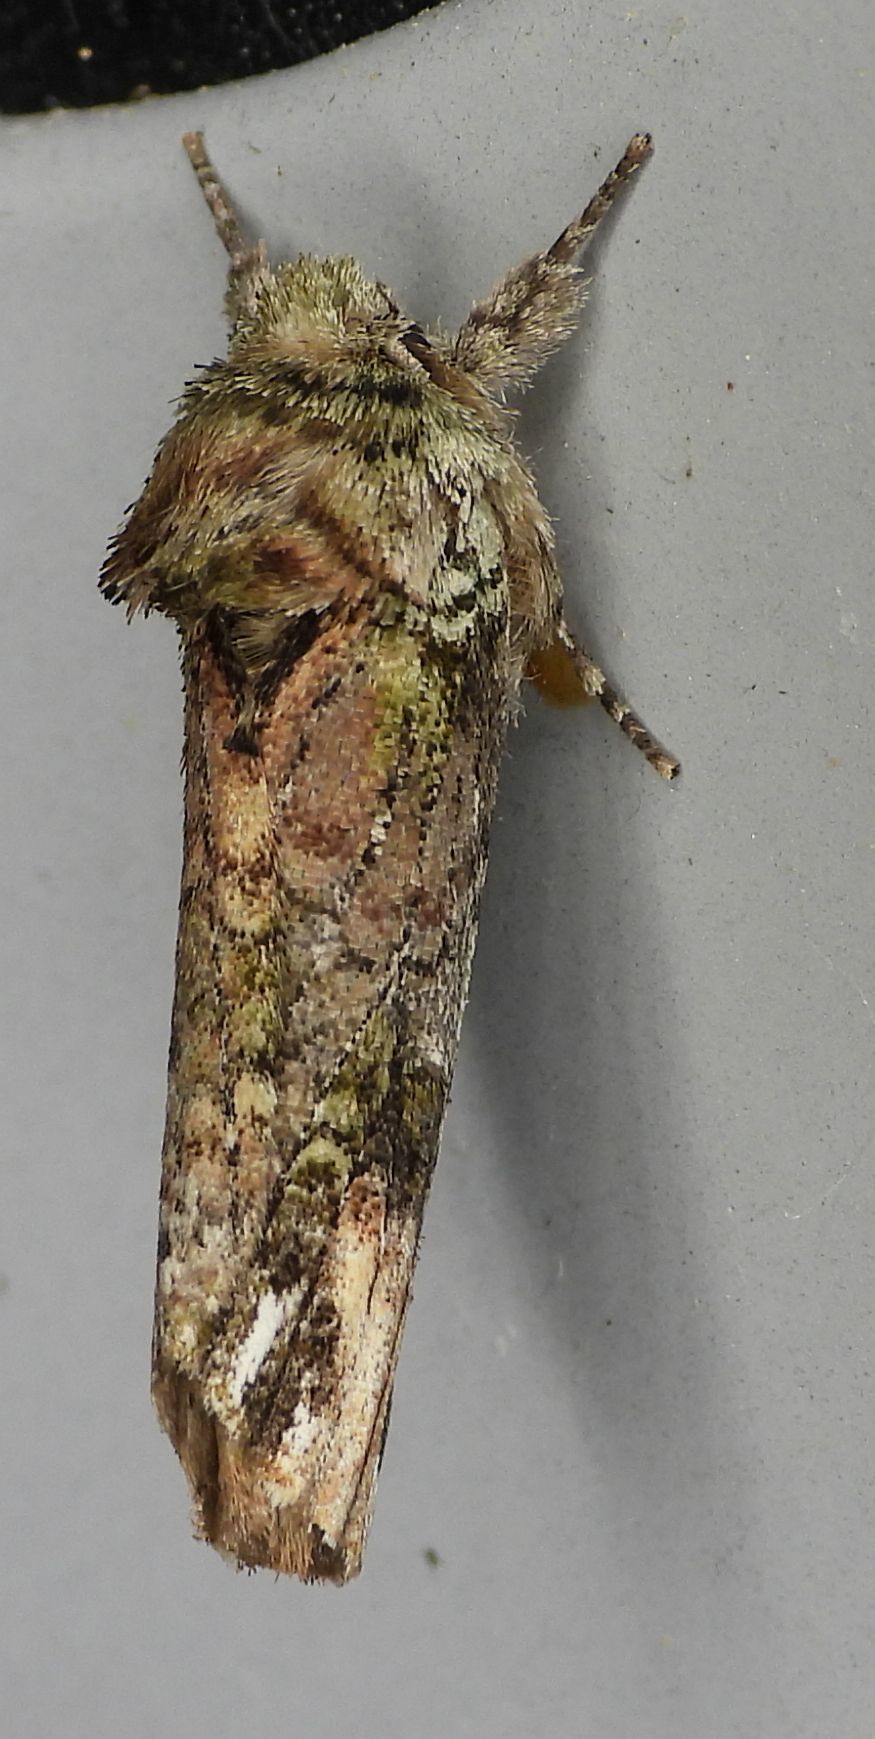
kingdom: Animalia
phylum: Arthropoda
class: Insecta
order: Lepidoptera
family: Notodontidae
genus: Schizura
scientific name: Schizura
